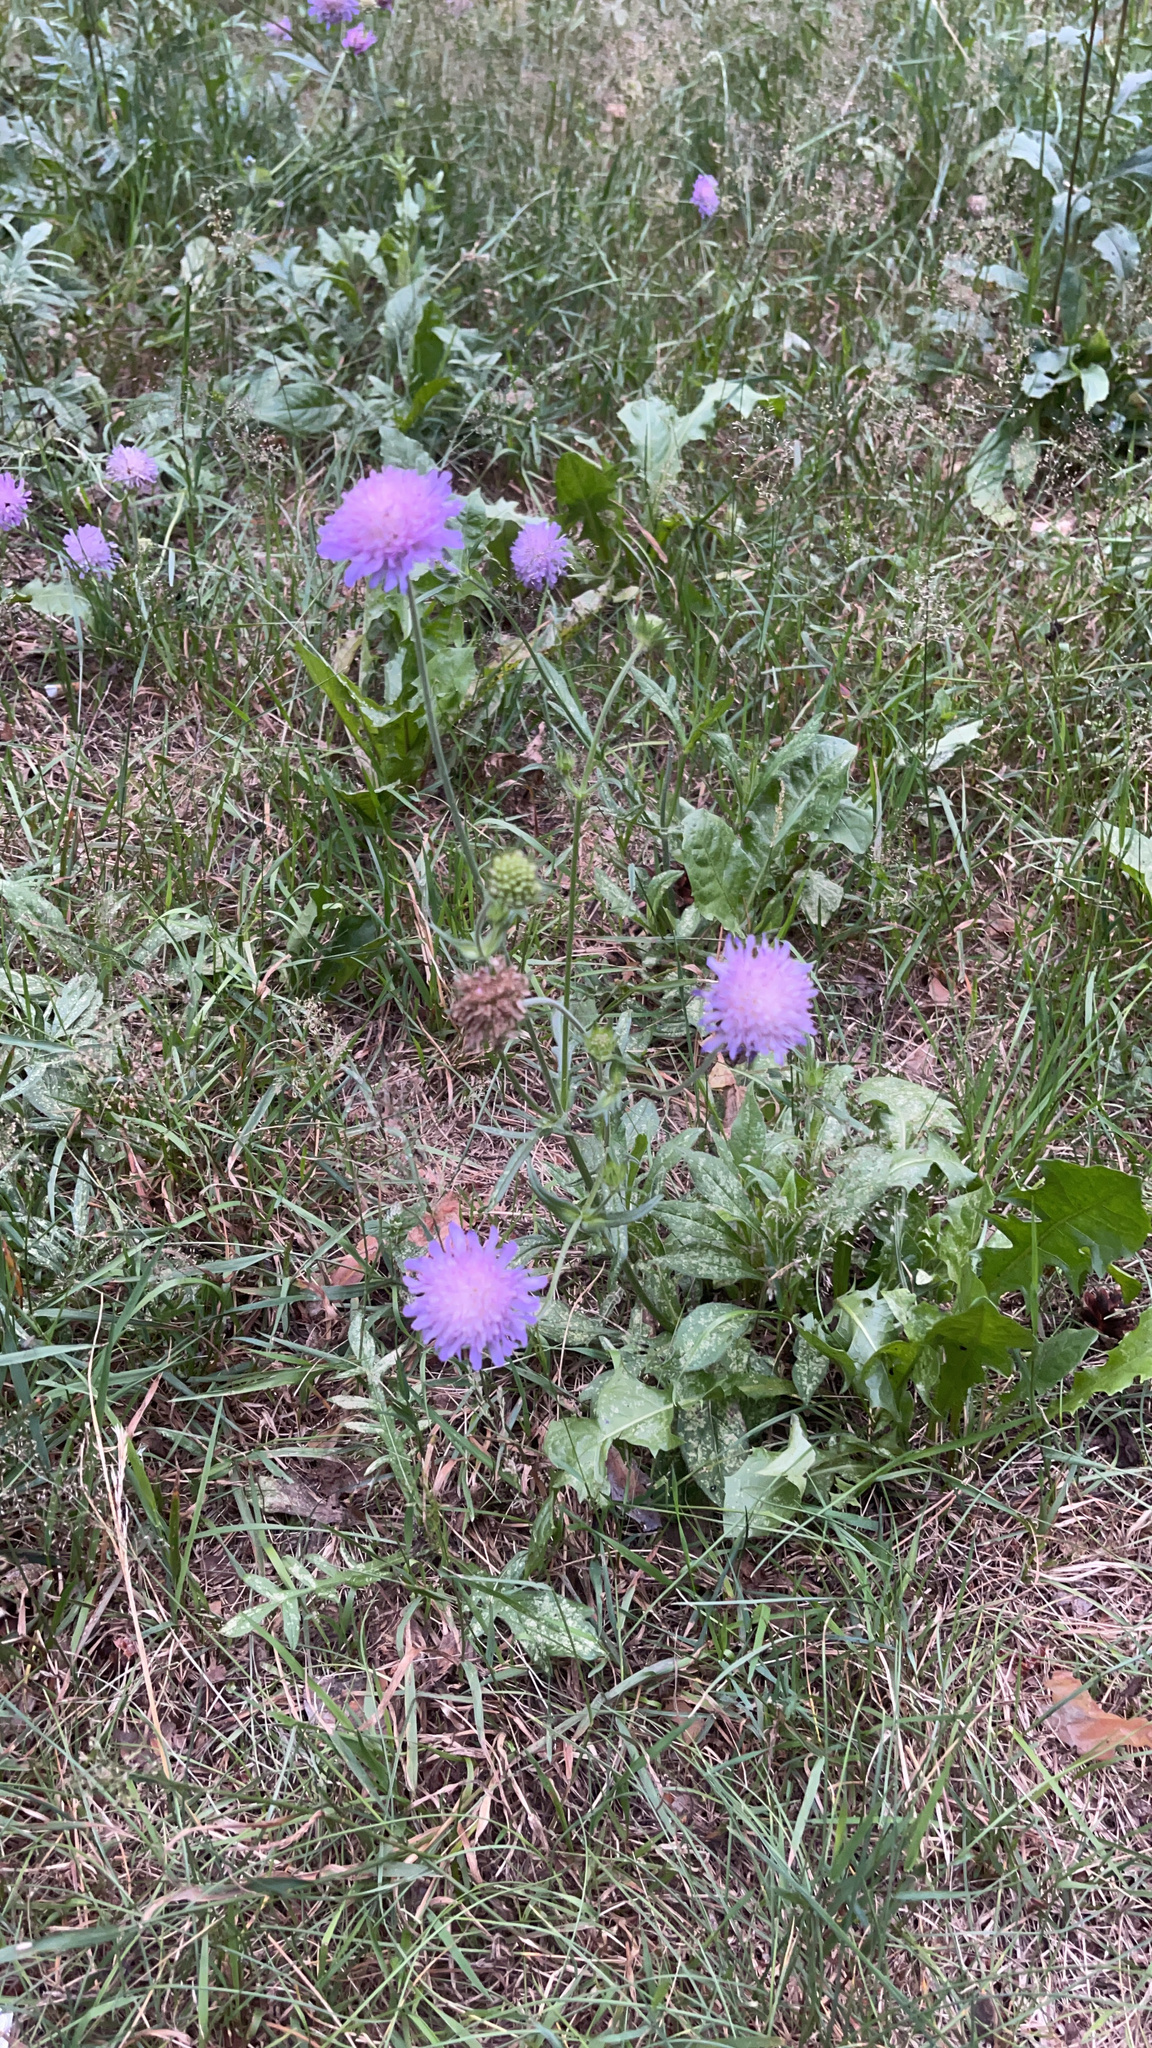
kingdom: Plantae
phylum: Tracheophyta
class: Magnoliopsida
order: Dipsacales
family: Caprifoliaceae
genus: Knautia
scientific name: Knautia arvensis
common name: Field scabiosa
